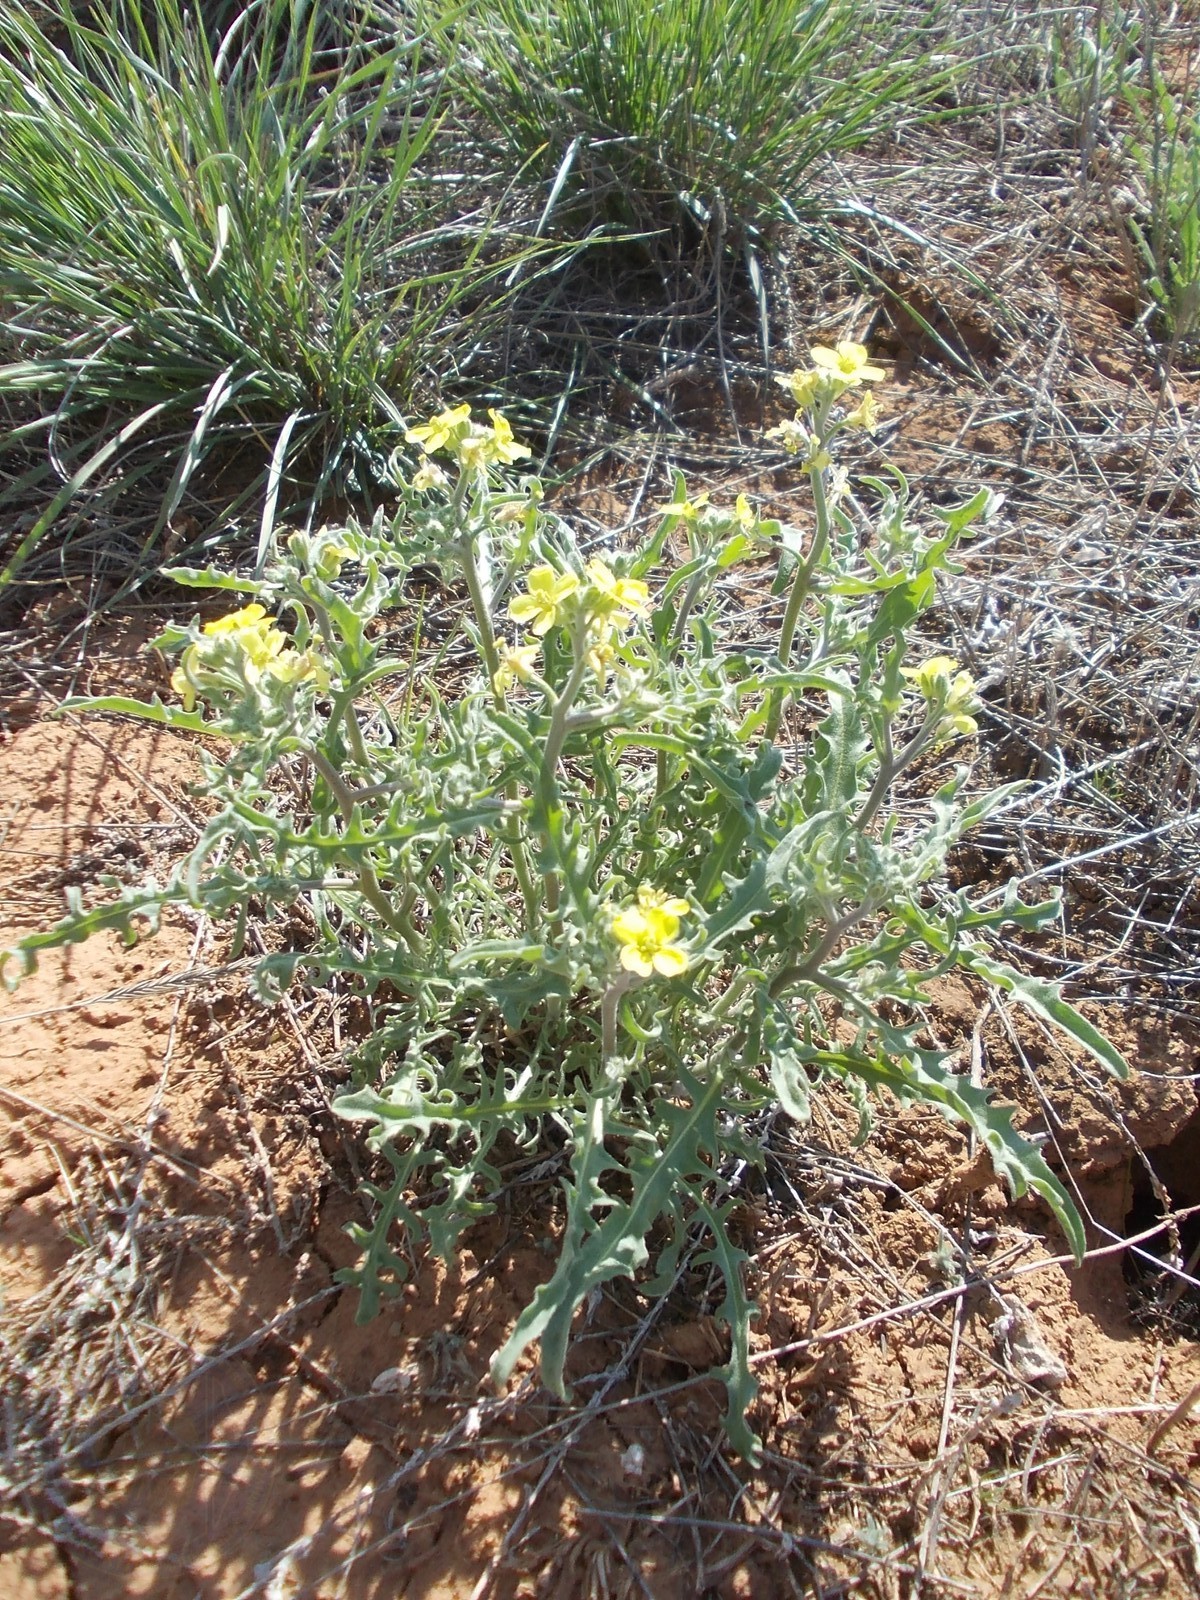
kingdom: Plantae
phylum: Tracheophyta
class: Magnoliopsida
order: Brassicales
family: Brassicaceae
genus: Sterigmostemum
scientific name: Sterigmostemum caspicum
